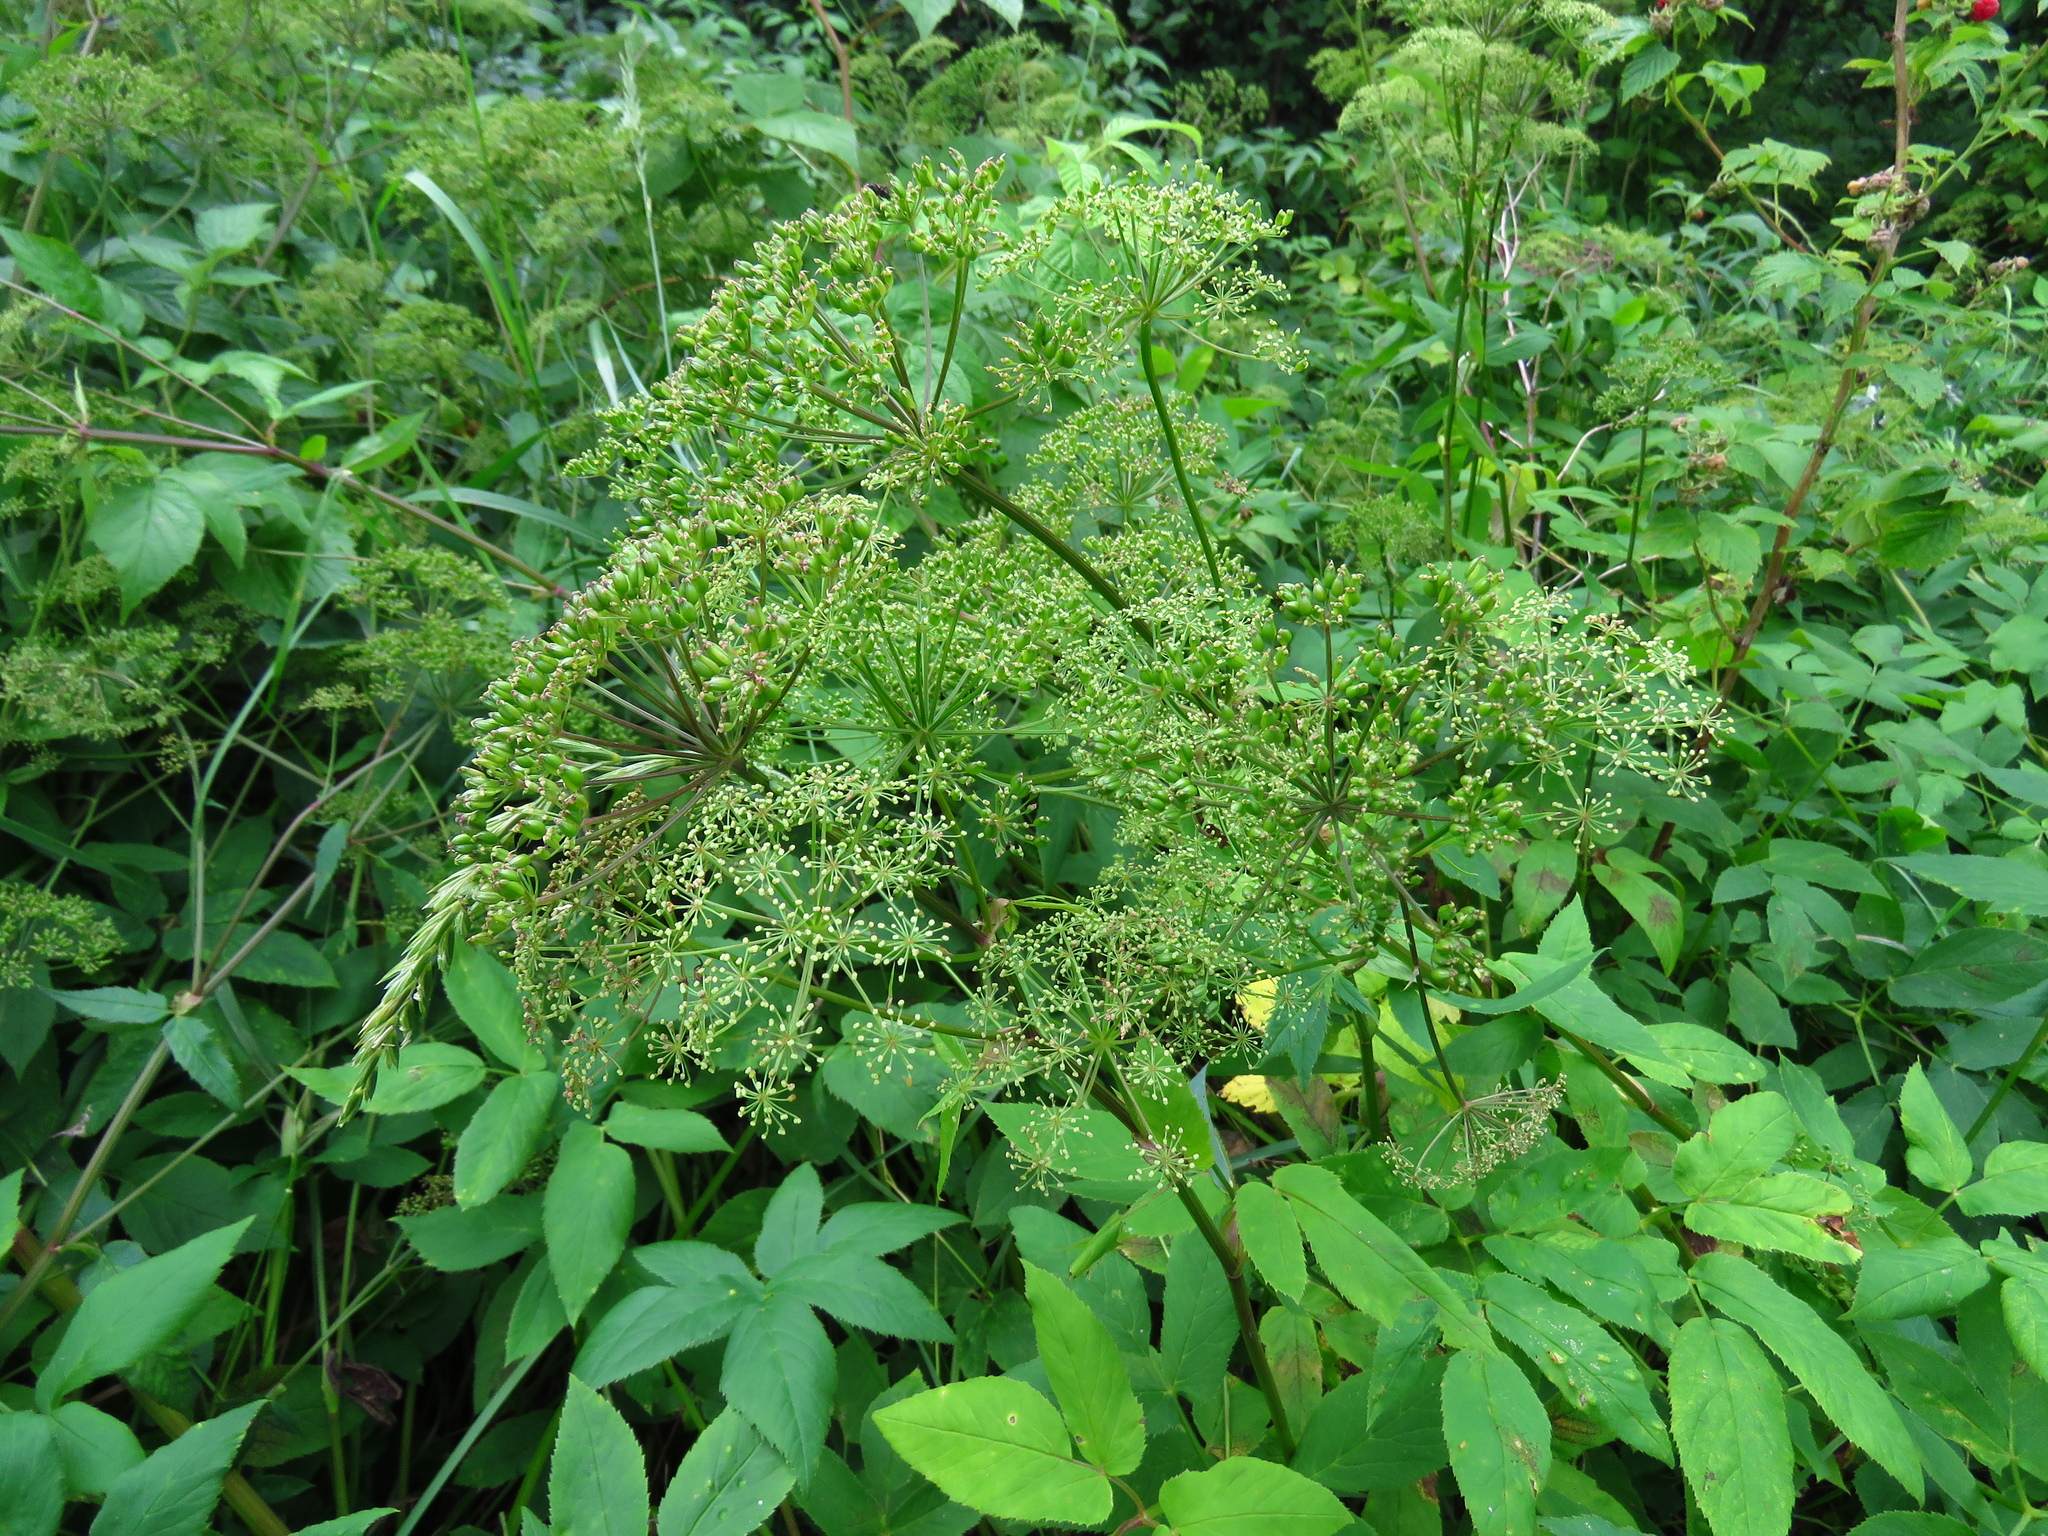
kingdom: Plantae
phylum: Tracheophyta
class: Magnoliopsida
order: Apiales
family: Apiaceae
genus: Aegopodium
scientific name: Aegopodium podagraria
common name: Ground-elder
